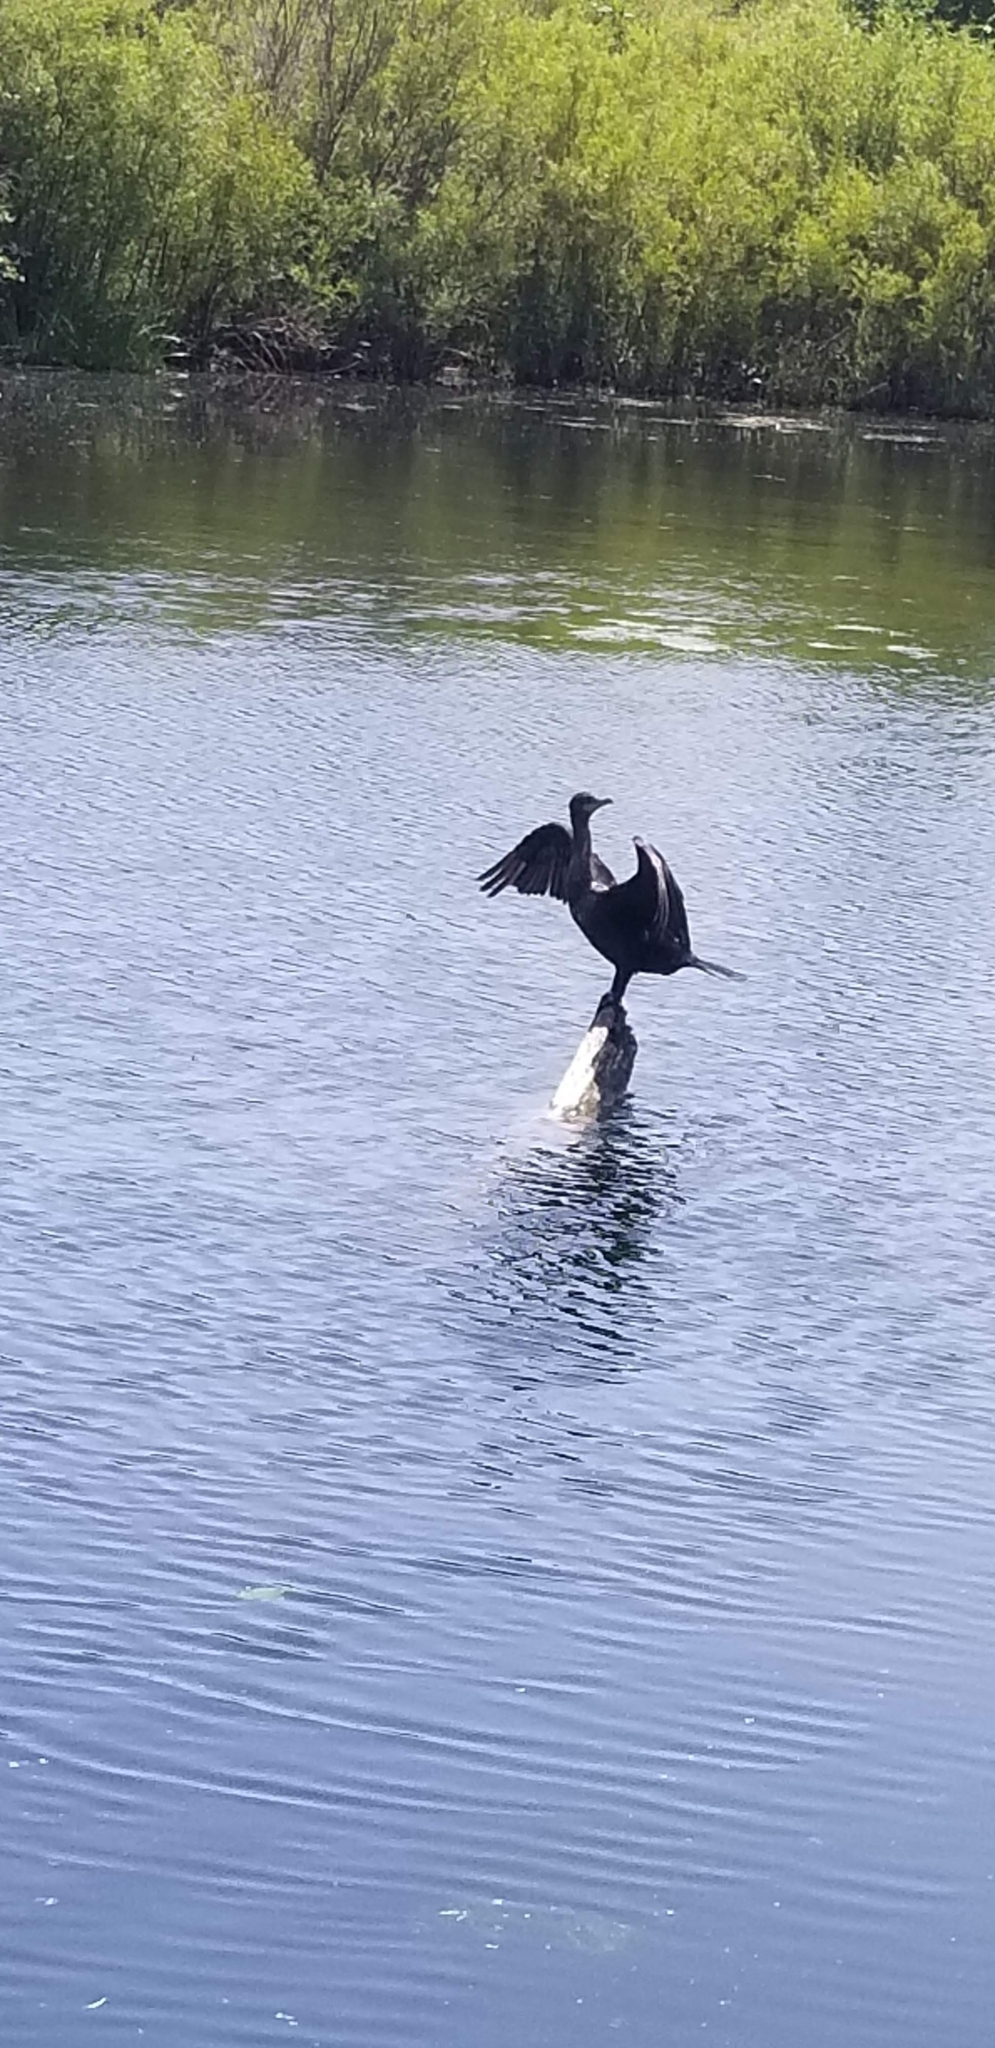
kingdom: Animalia
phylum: Chordata
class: Aves
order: Suliformes
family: Phalacrocoracidae
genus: Phalacrocorax
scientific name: Phalacrocorax auritus
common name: Double-crested cormorant
